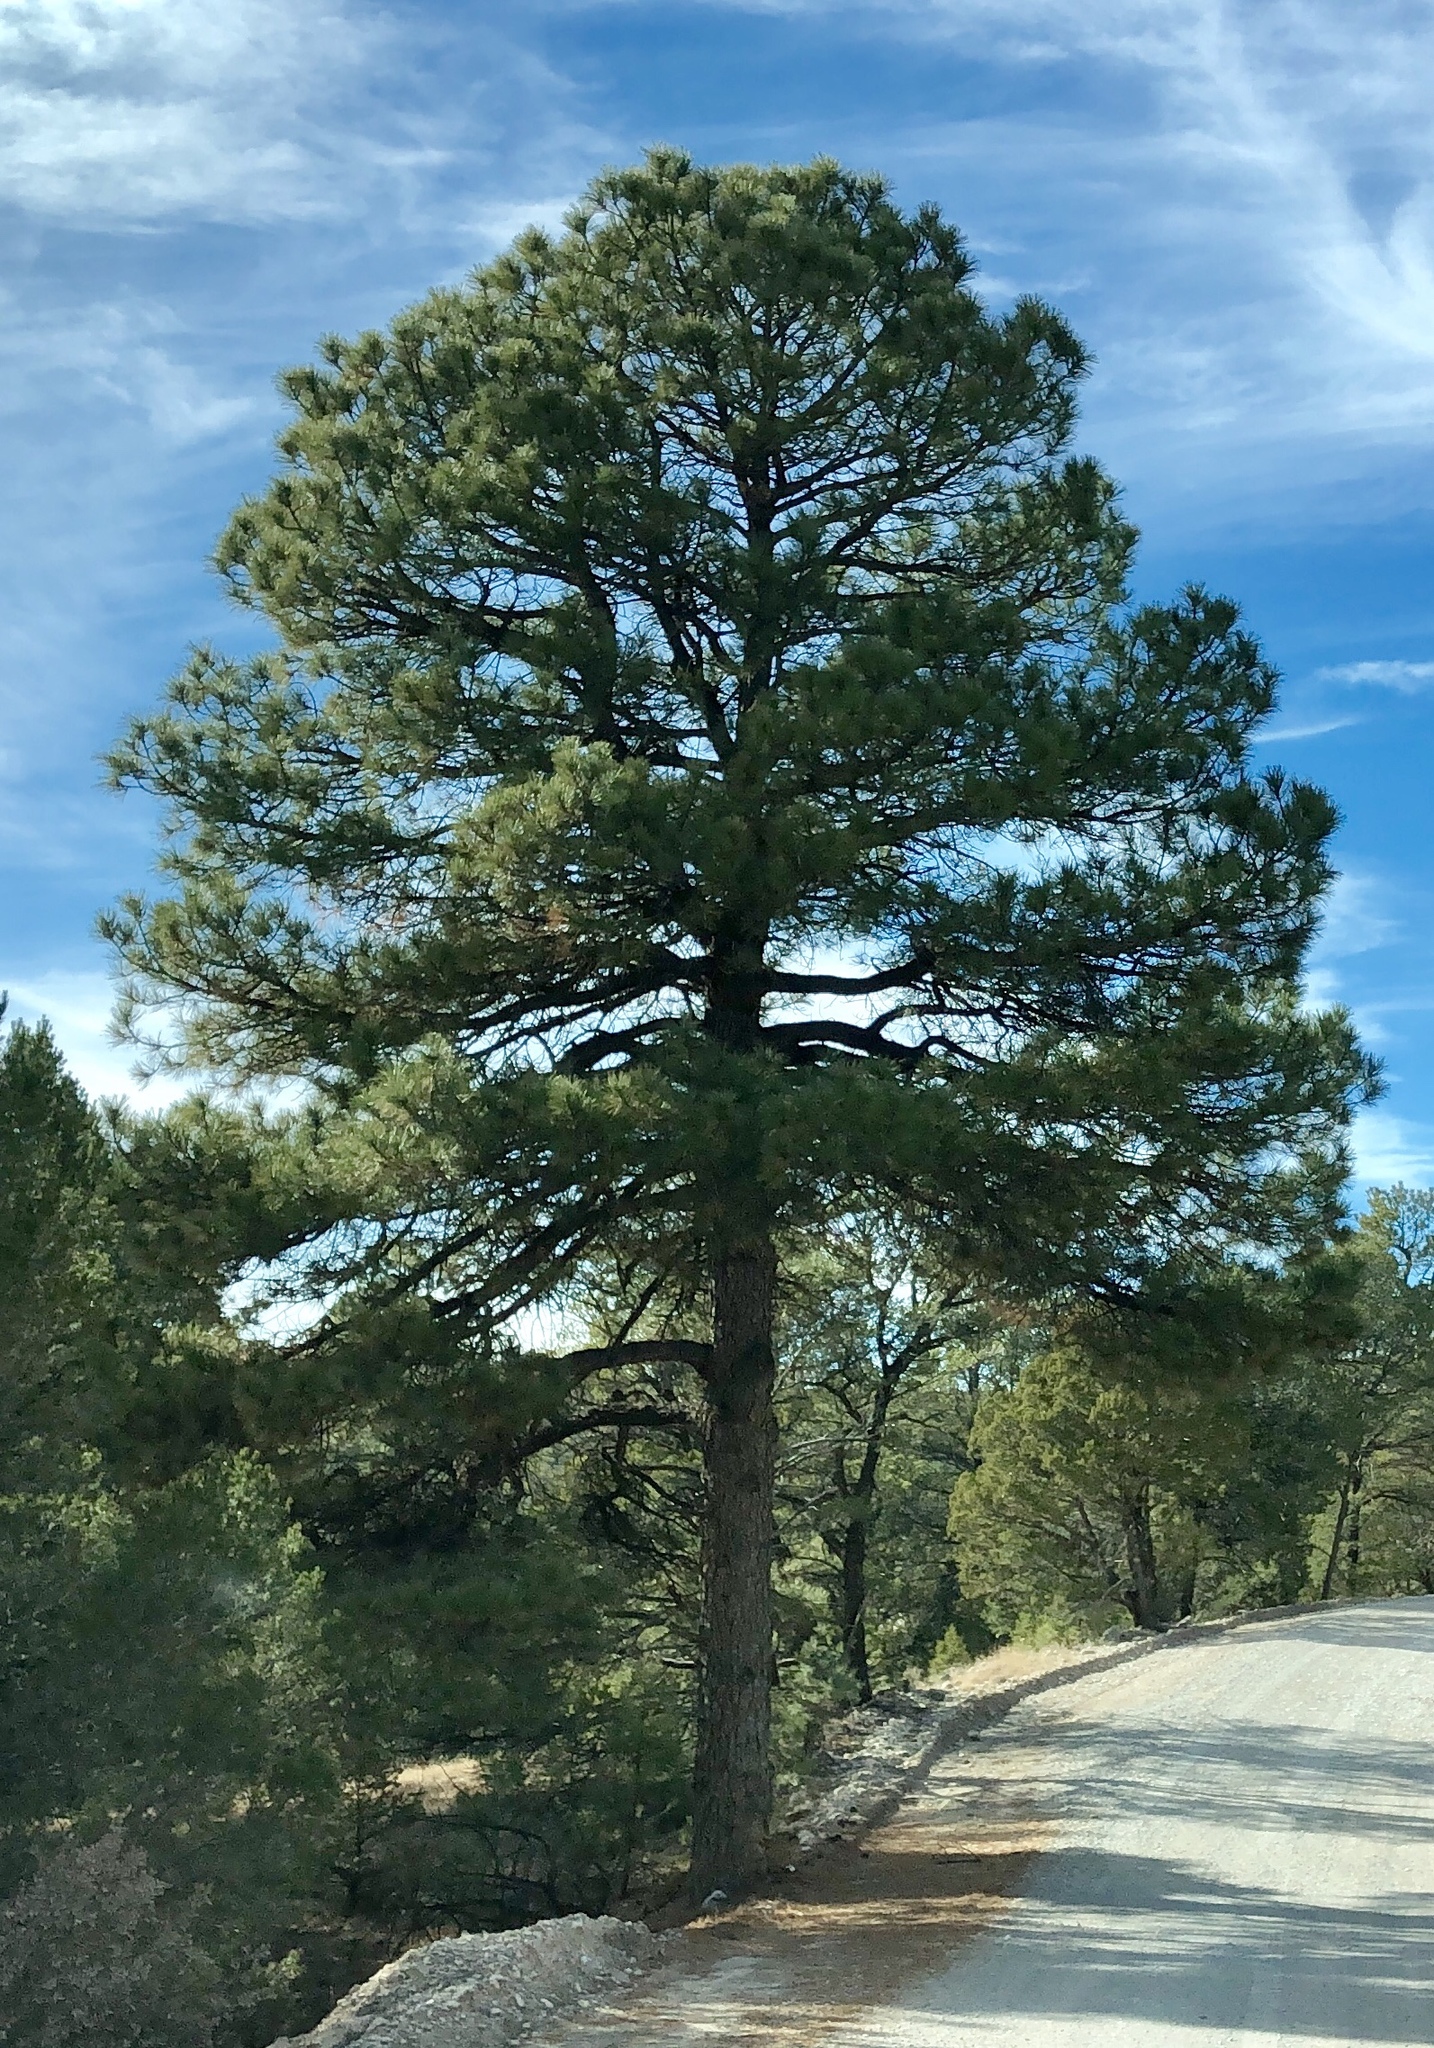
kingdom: Plantae
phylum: Tracheophyta
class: Pinopsida
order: Pinales
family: Pinaceae
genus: Pinus
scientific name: Pinus ponderosa
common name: Western yellow-pine
